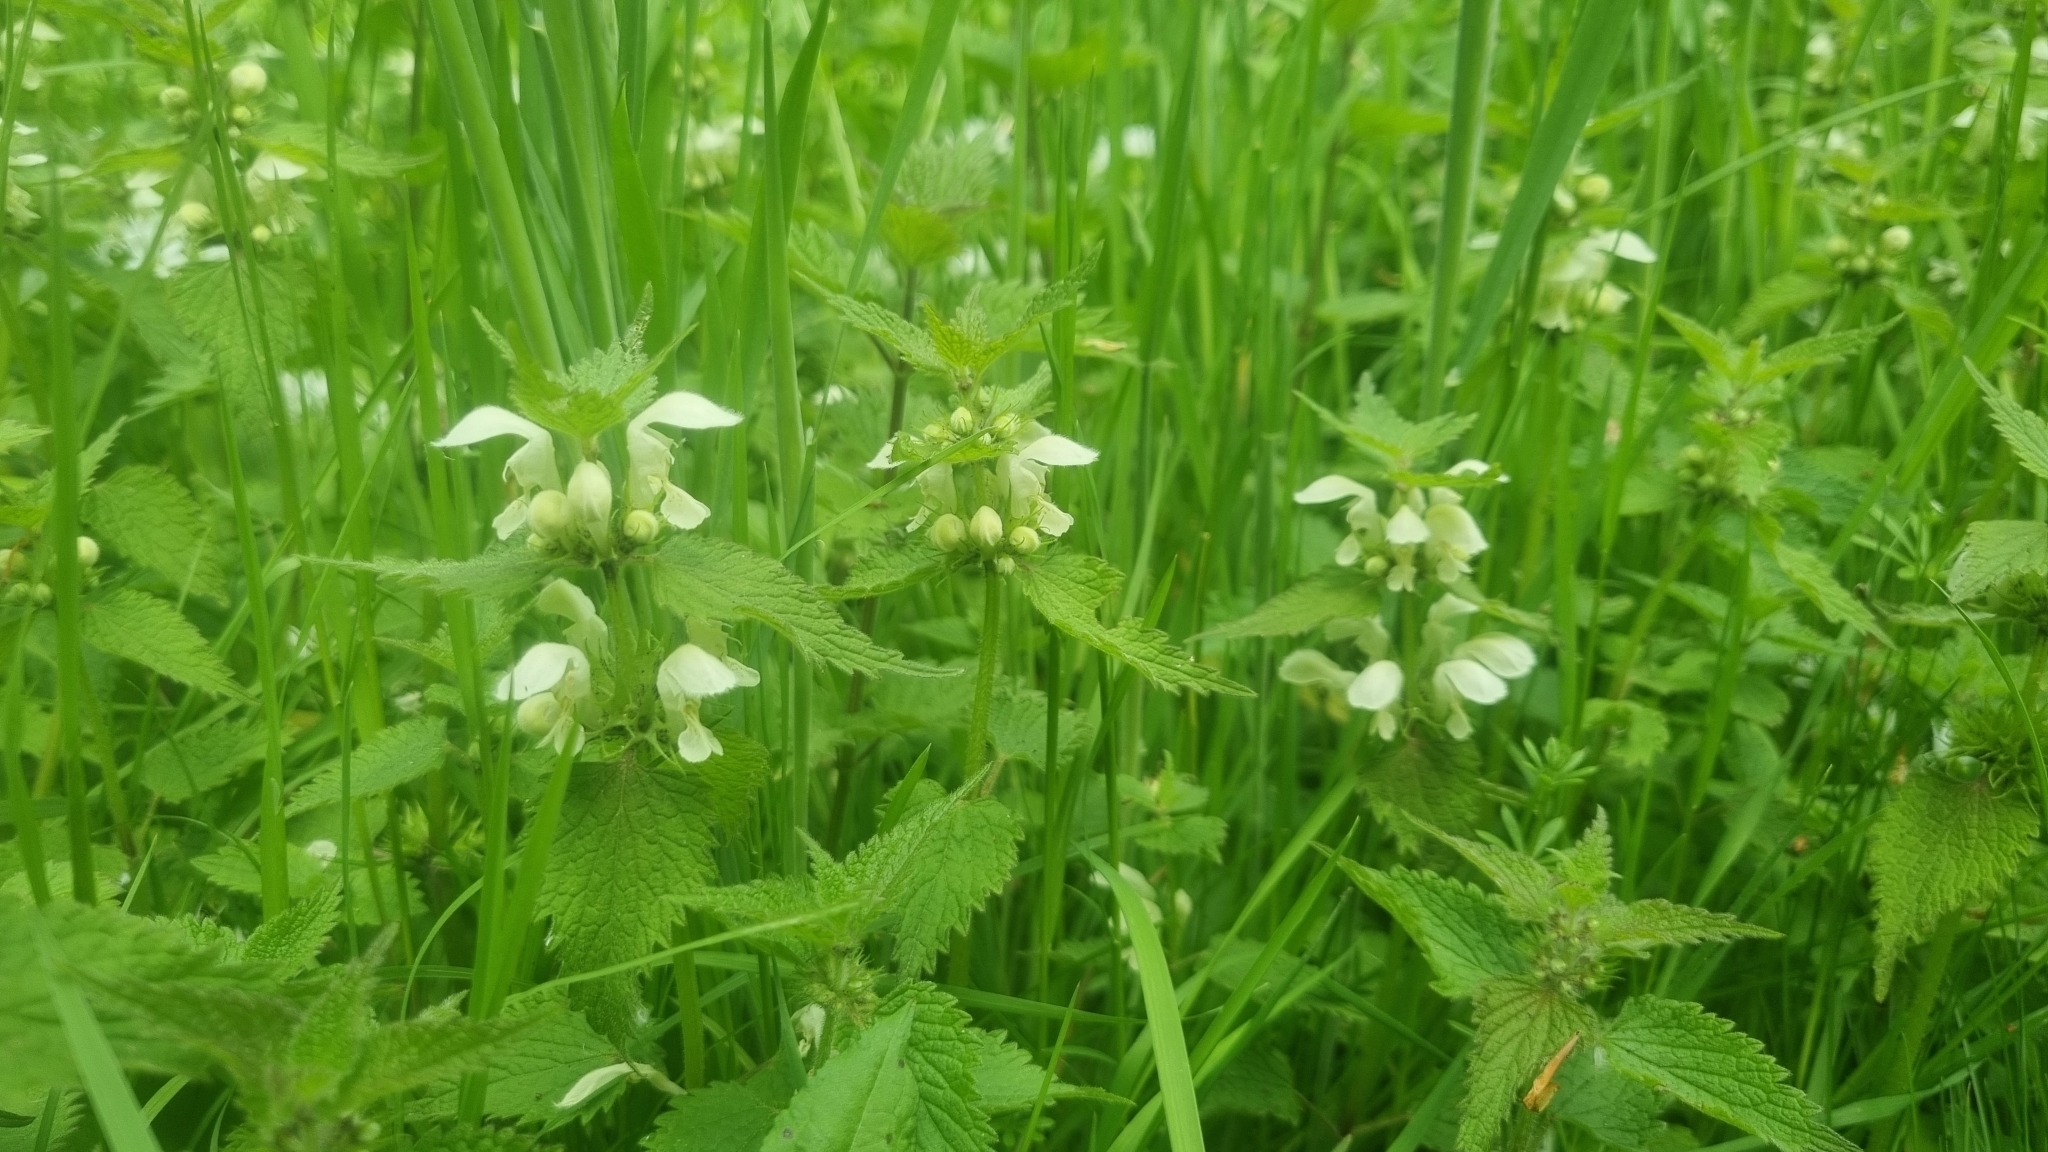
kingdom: Plantae
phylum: Tracheophyta
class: Magnoliopsida
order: Lamiales
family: Lamiaceae
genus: Lamium
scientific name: Lamium album
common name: White dead-nettle
